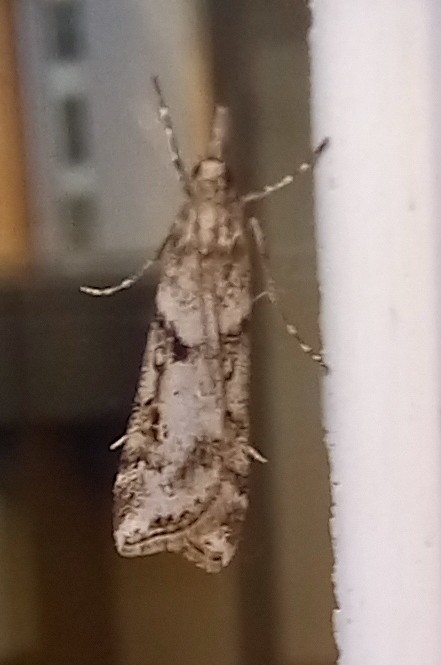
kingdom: Animalia
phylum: Arthropoda
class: Insecta
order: Lepidoptera
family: Crambidae
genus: Eudonia
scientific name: Eudonia angustea
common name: Narrow-winged grey
